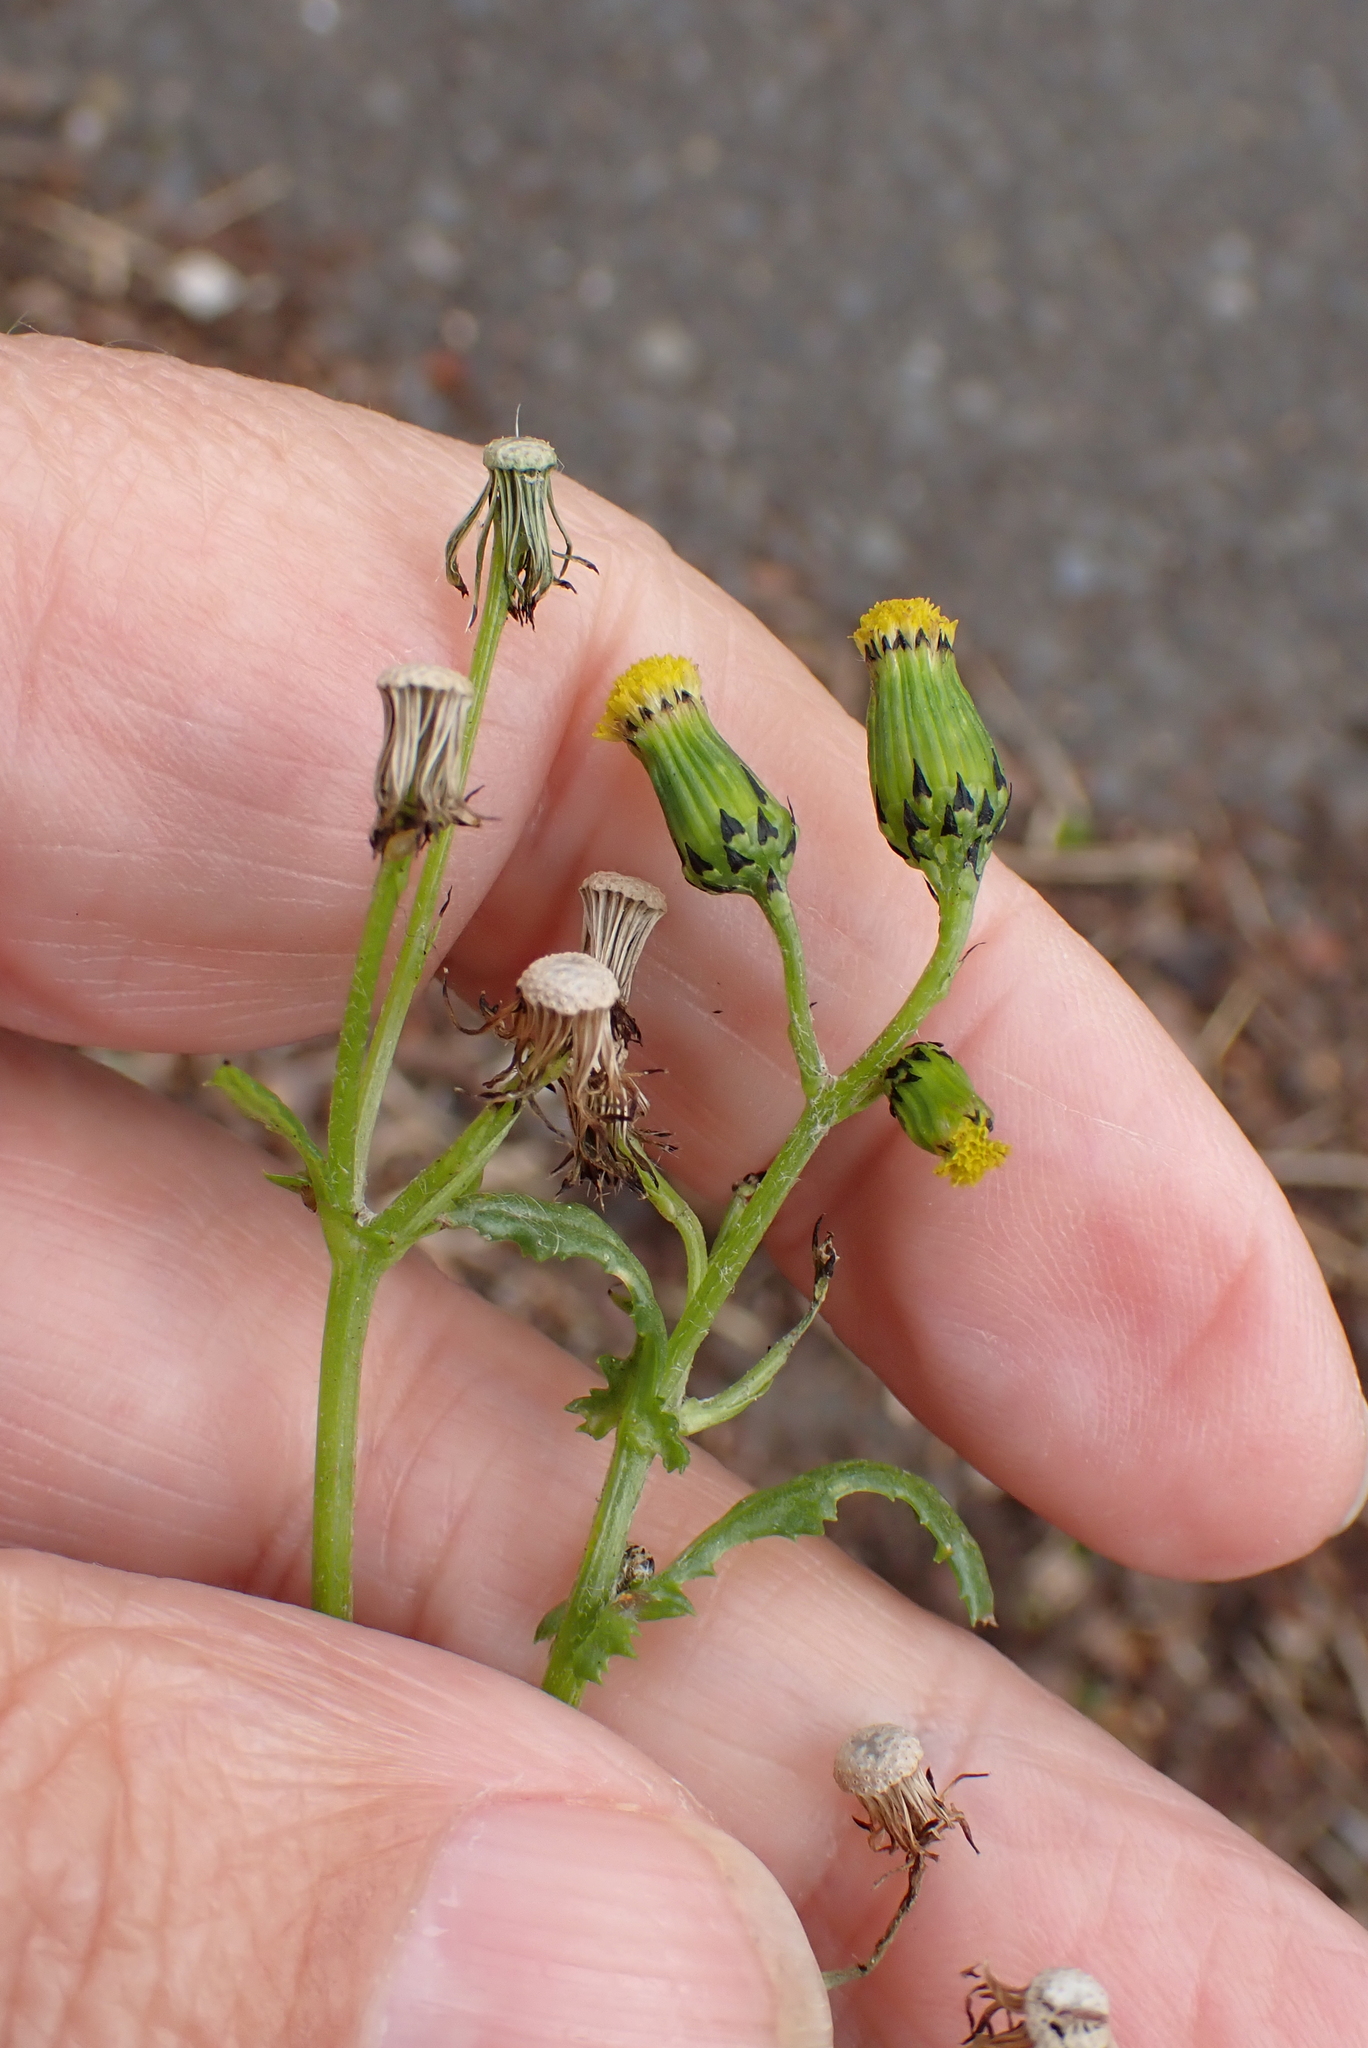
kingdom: Plantae
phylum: Tracheophyta
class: Magnoliopsida
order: Asterales
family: Asteraceae
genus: Senecio
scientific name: Senecio vulgaris
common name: Old-man-in-the-spring
